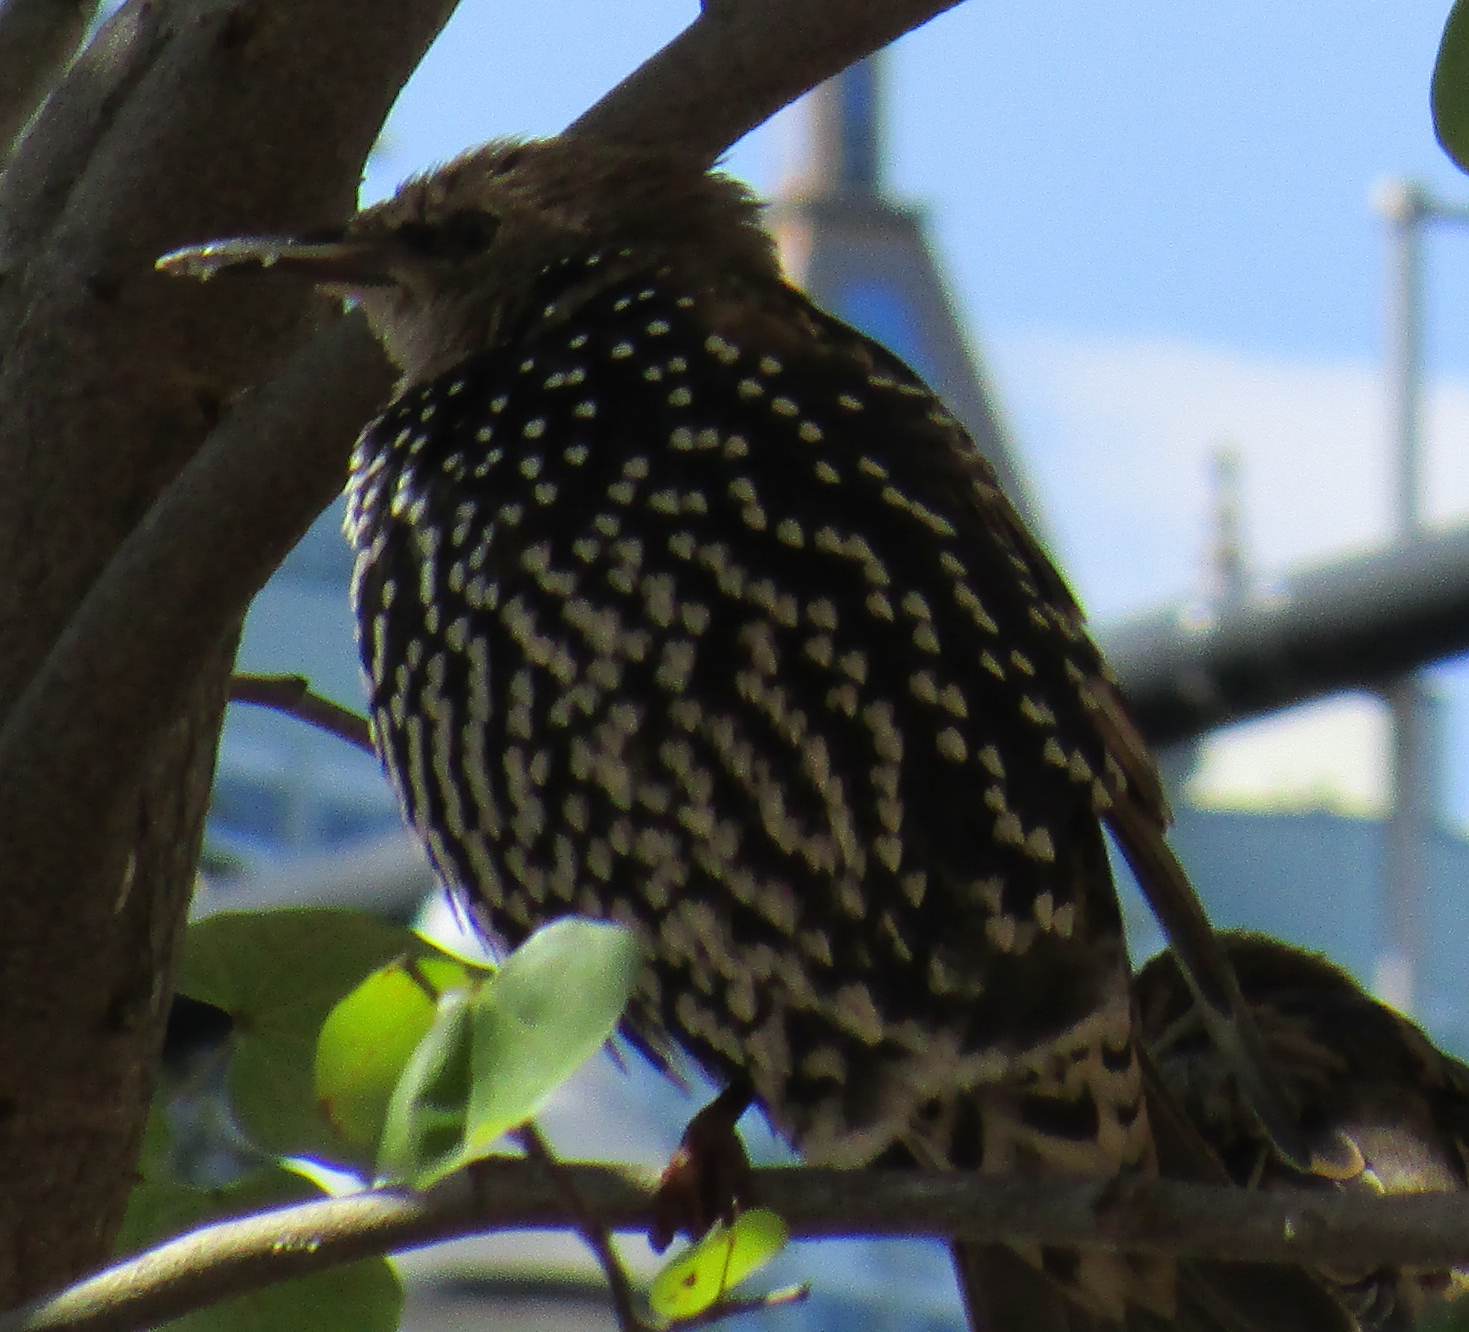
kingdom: Animalia
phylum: Chordata
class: Aves
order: Passeriformes
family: Sturnidae
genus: Sturnus
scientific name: Sturnus vulgaris
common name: Common starling
